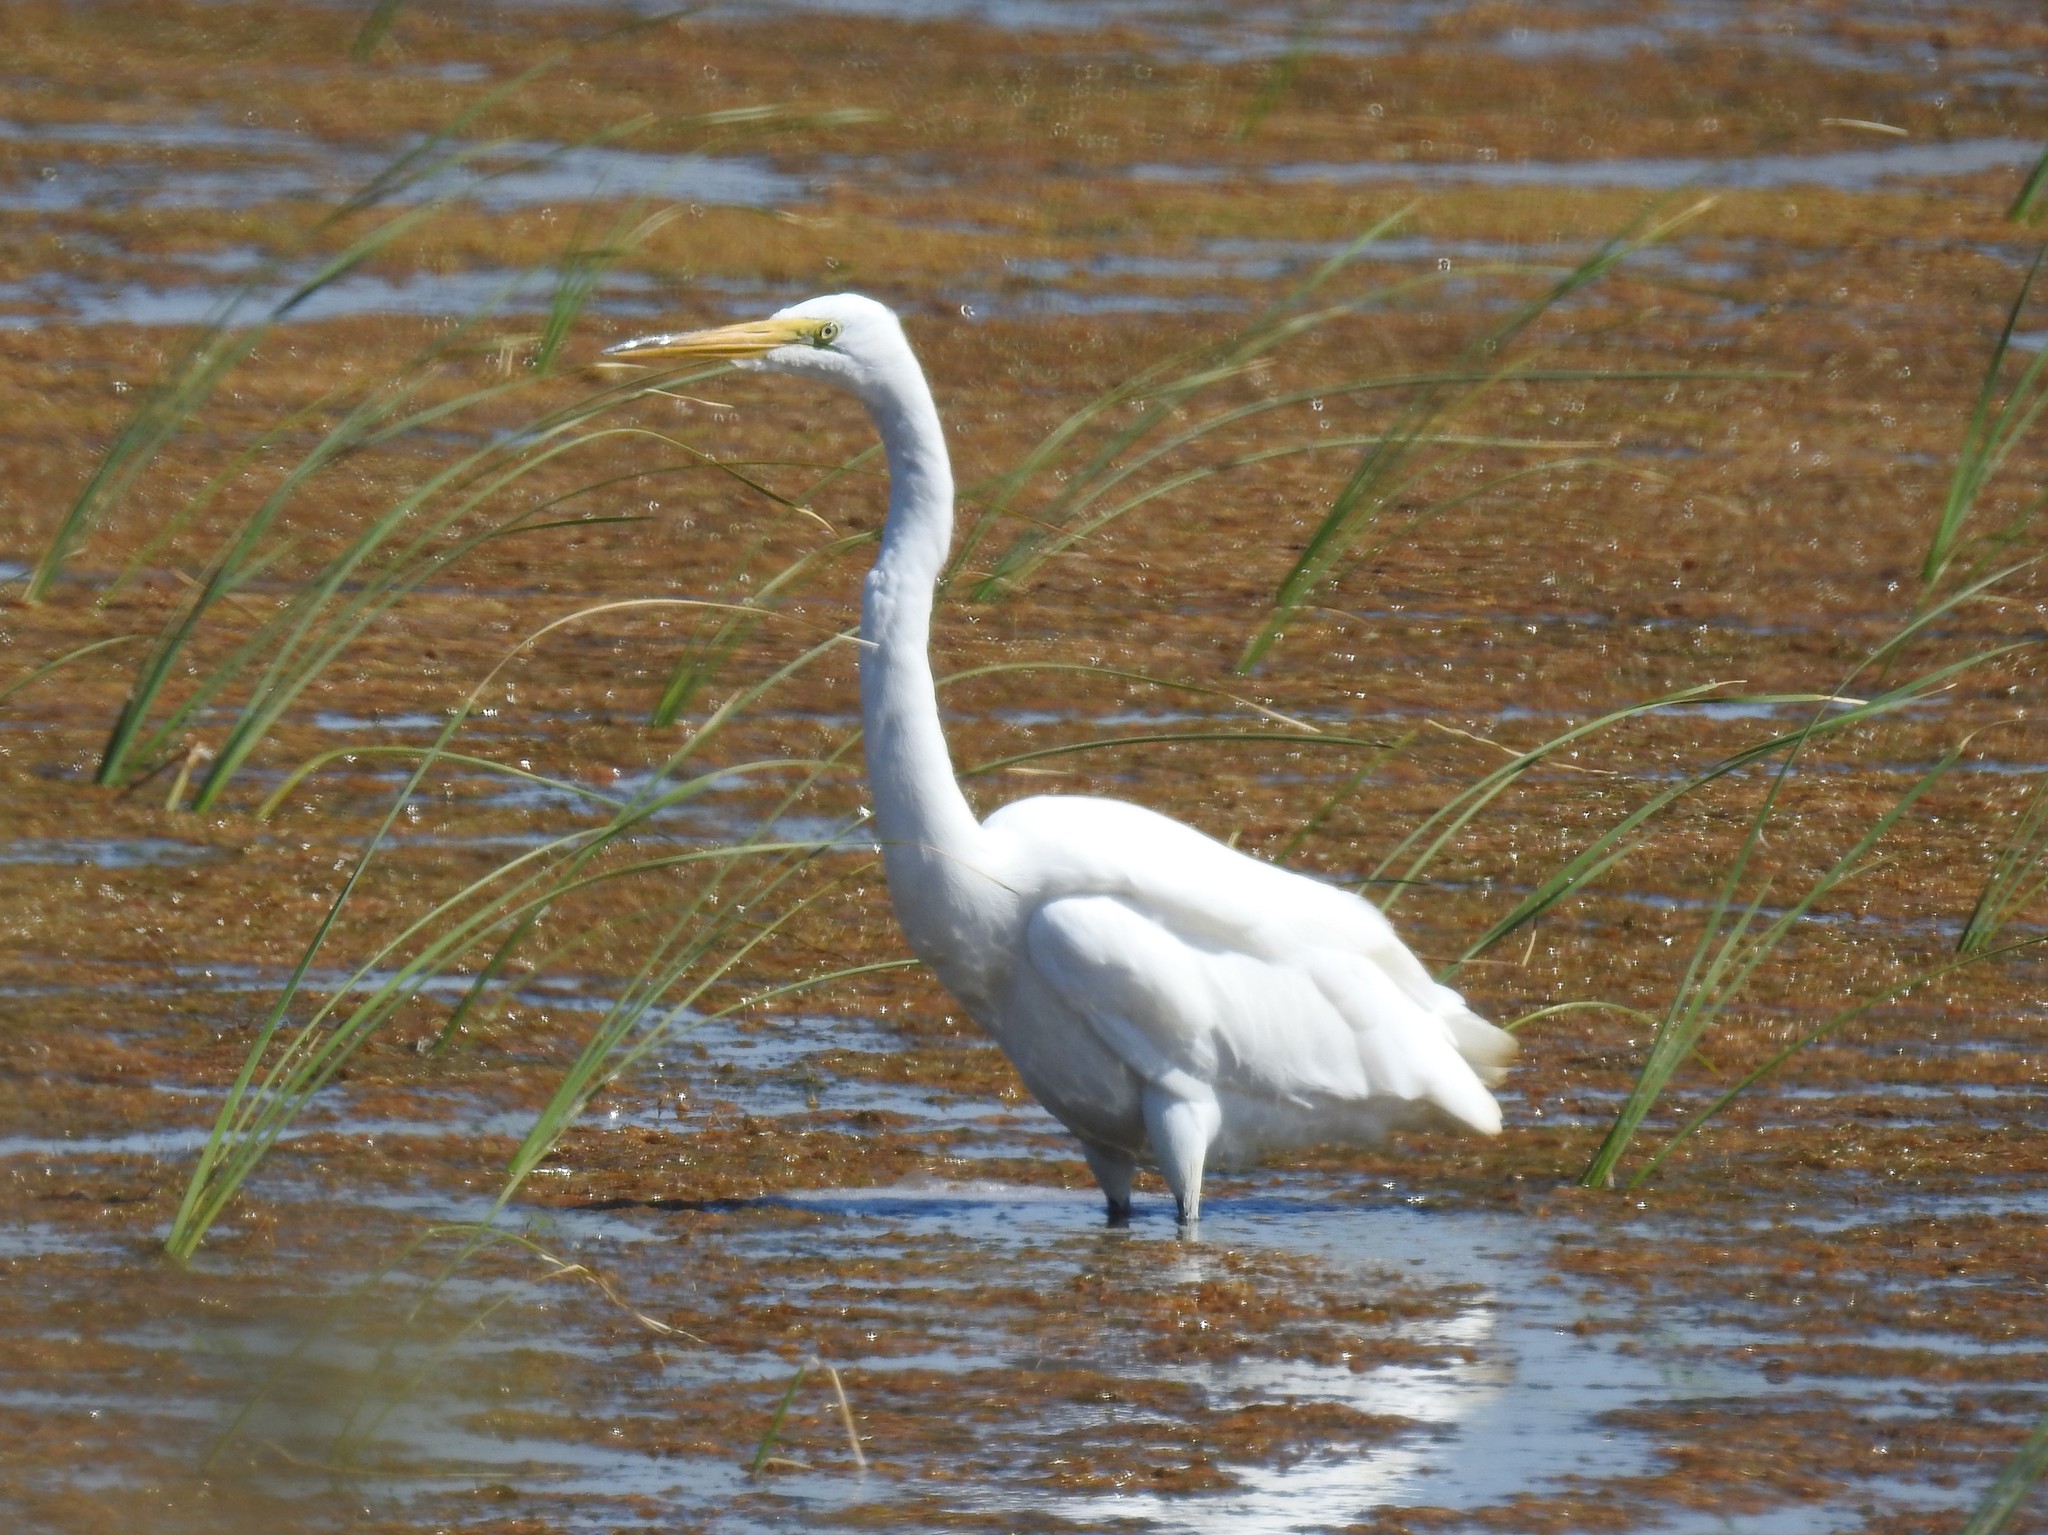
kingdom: Animalia
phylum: Chordata
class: Aves
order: Pelecaniformes
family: Ardeidae
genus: Ardea
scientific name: Ardea alba
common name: Great egret
